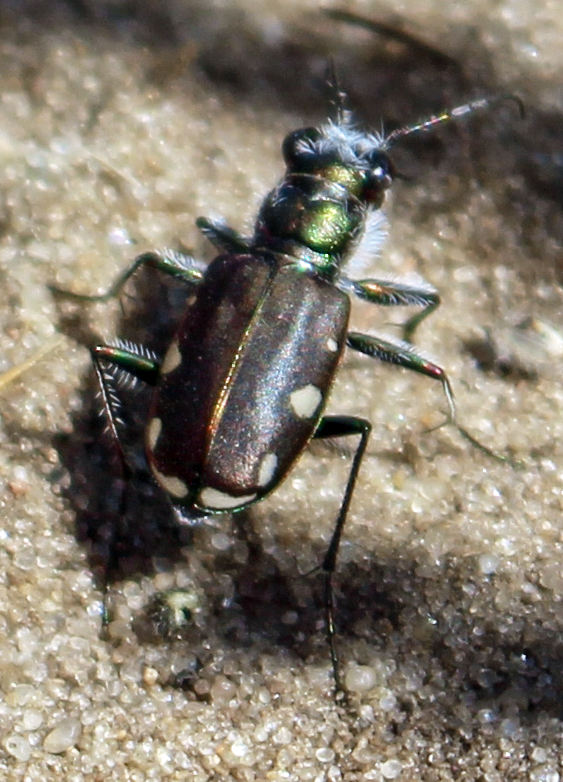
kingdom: Animalia
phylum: Arthropoda
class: Insecta
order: Coleoptera
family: Carabidae
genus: Cicindela
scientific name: Cicindela scutellaris
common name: Festive tiger beetle
